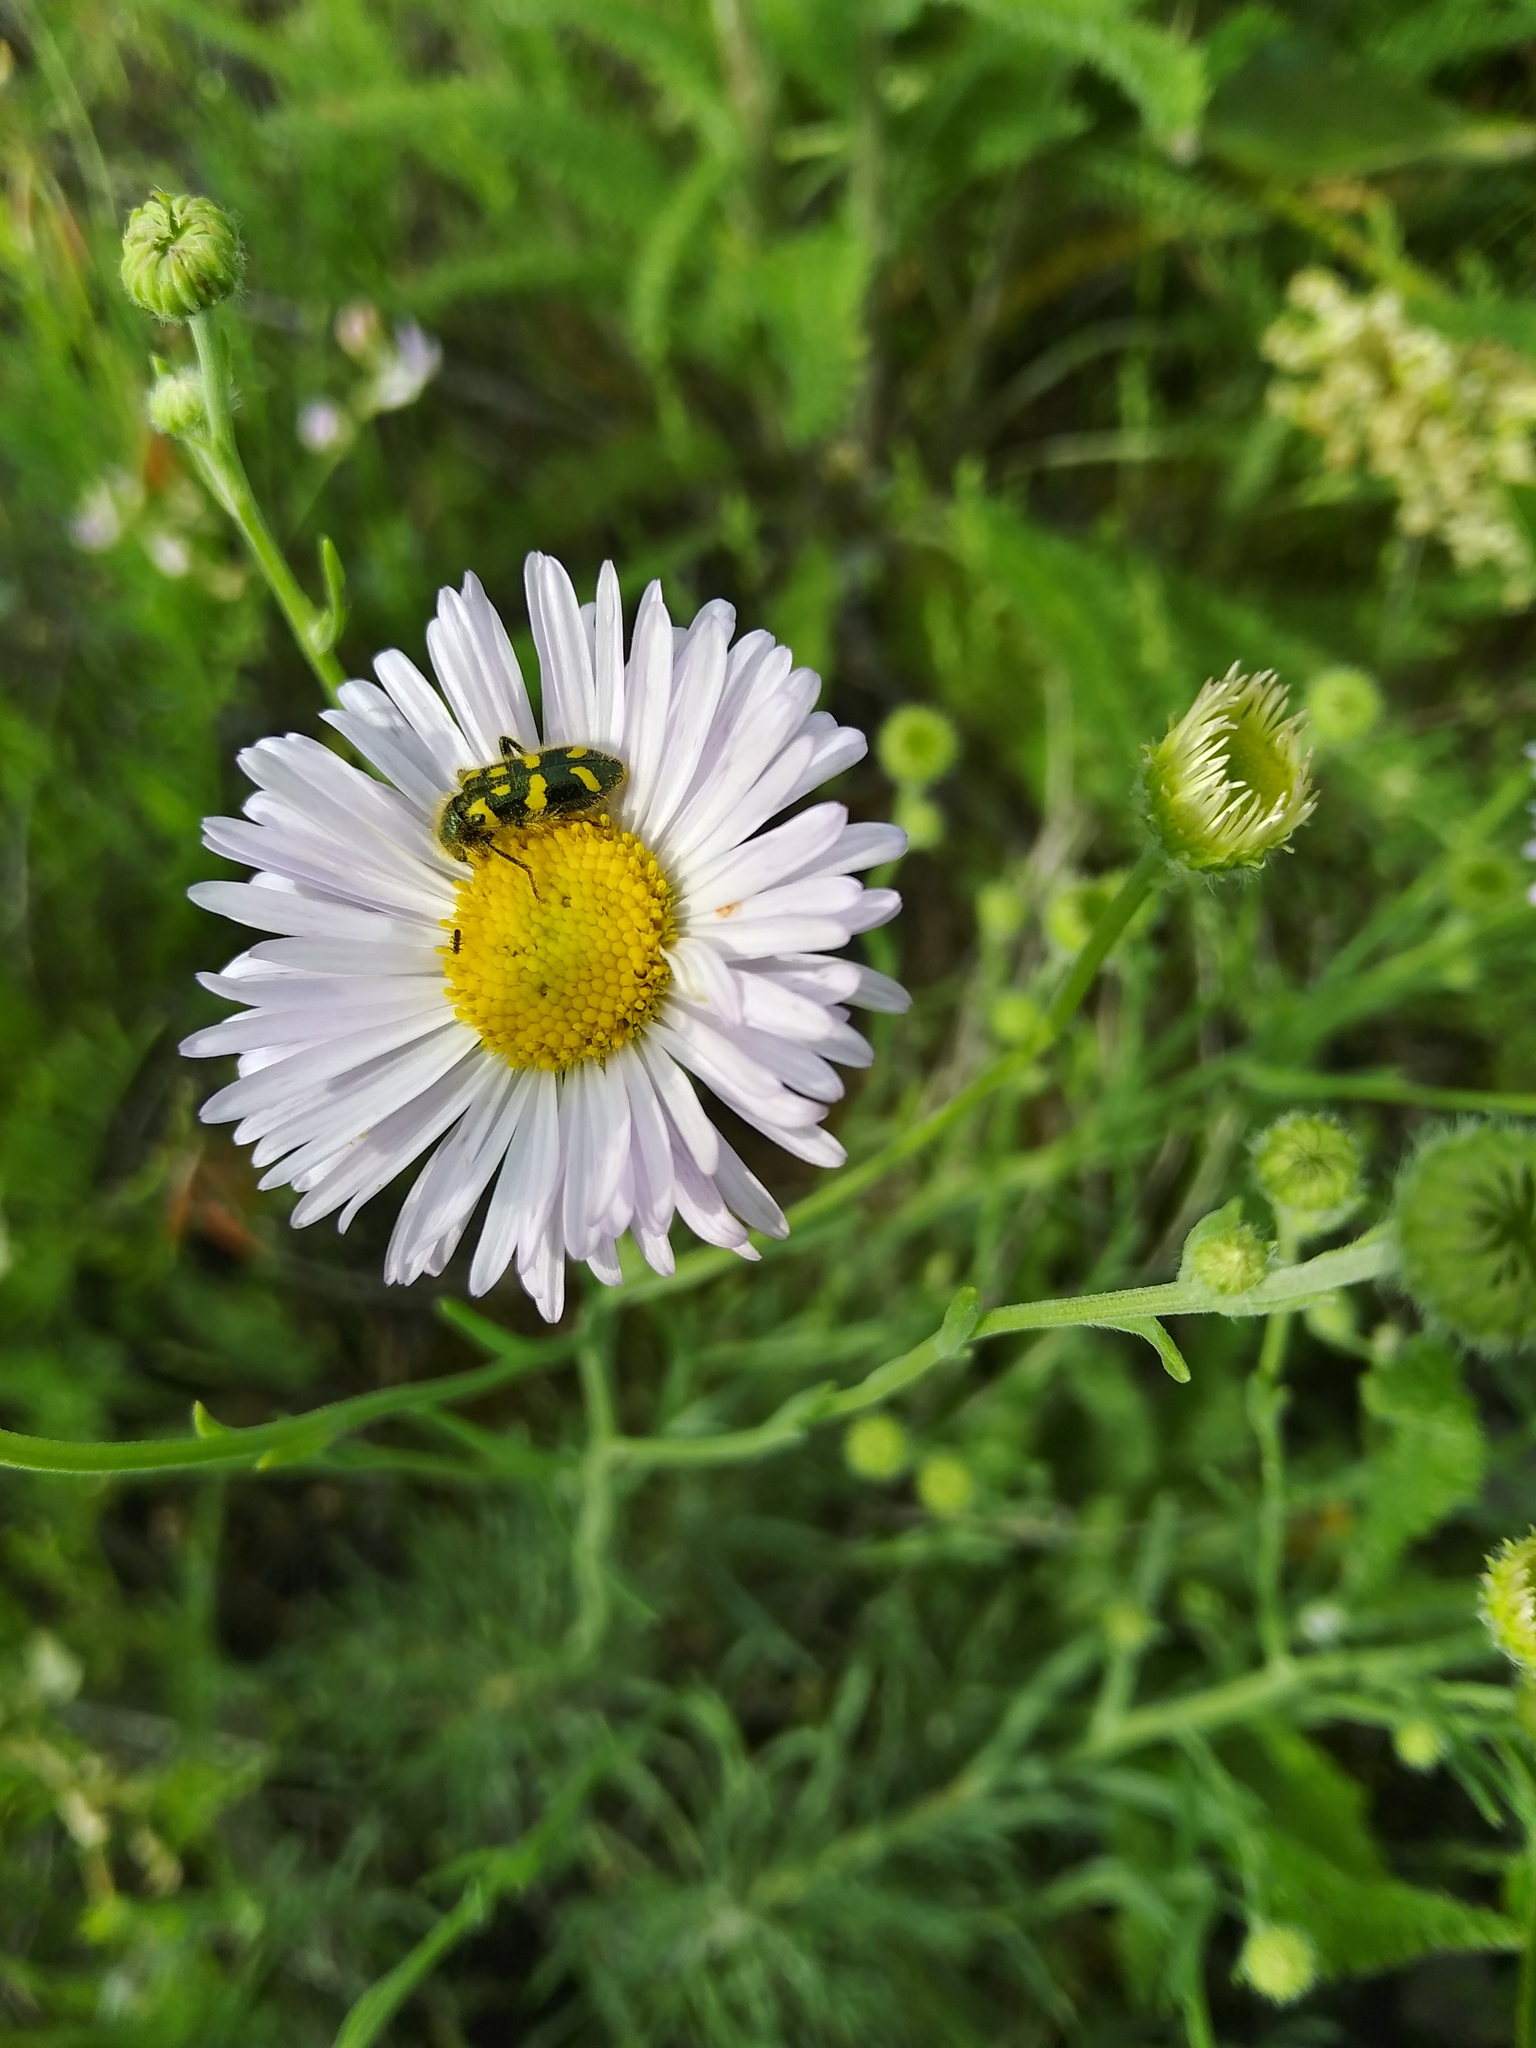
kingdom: Animalia
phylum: Arthropoda
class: Insecta
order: Coleoptera
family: Cleridae
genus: Trichodes
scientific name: Trichodes ornatus
